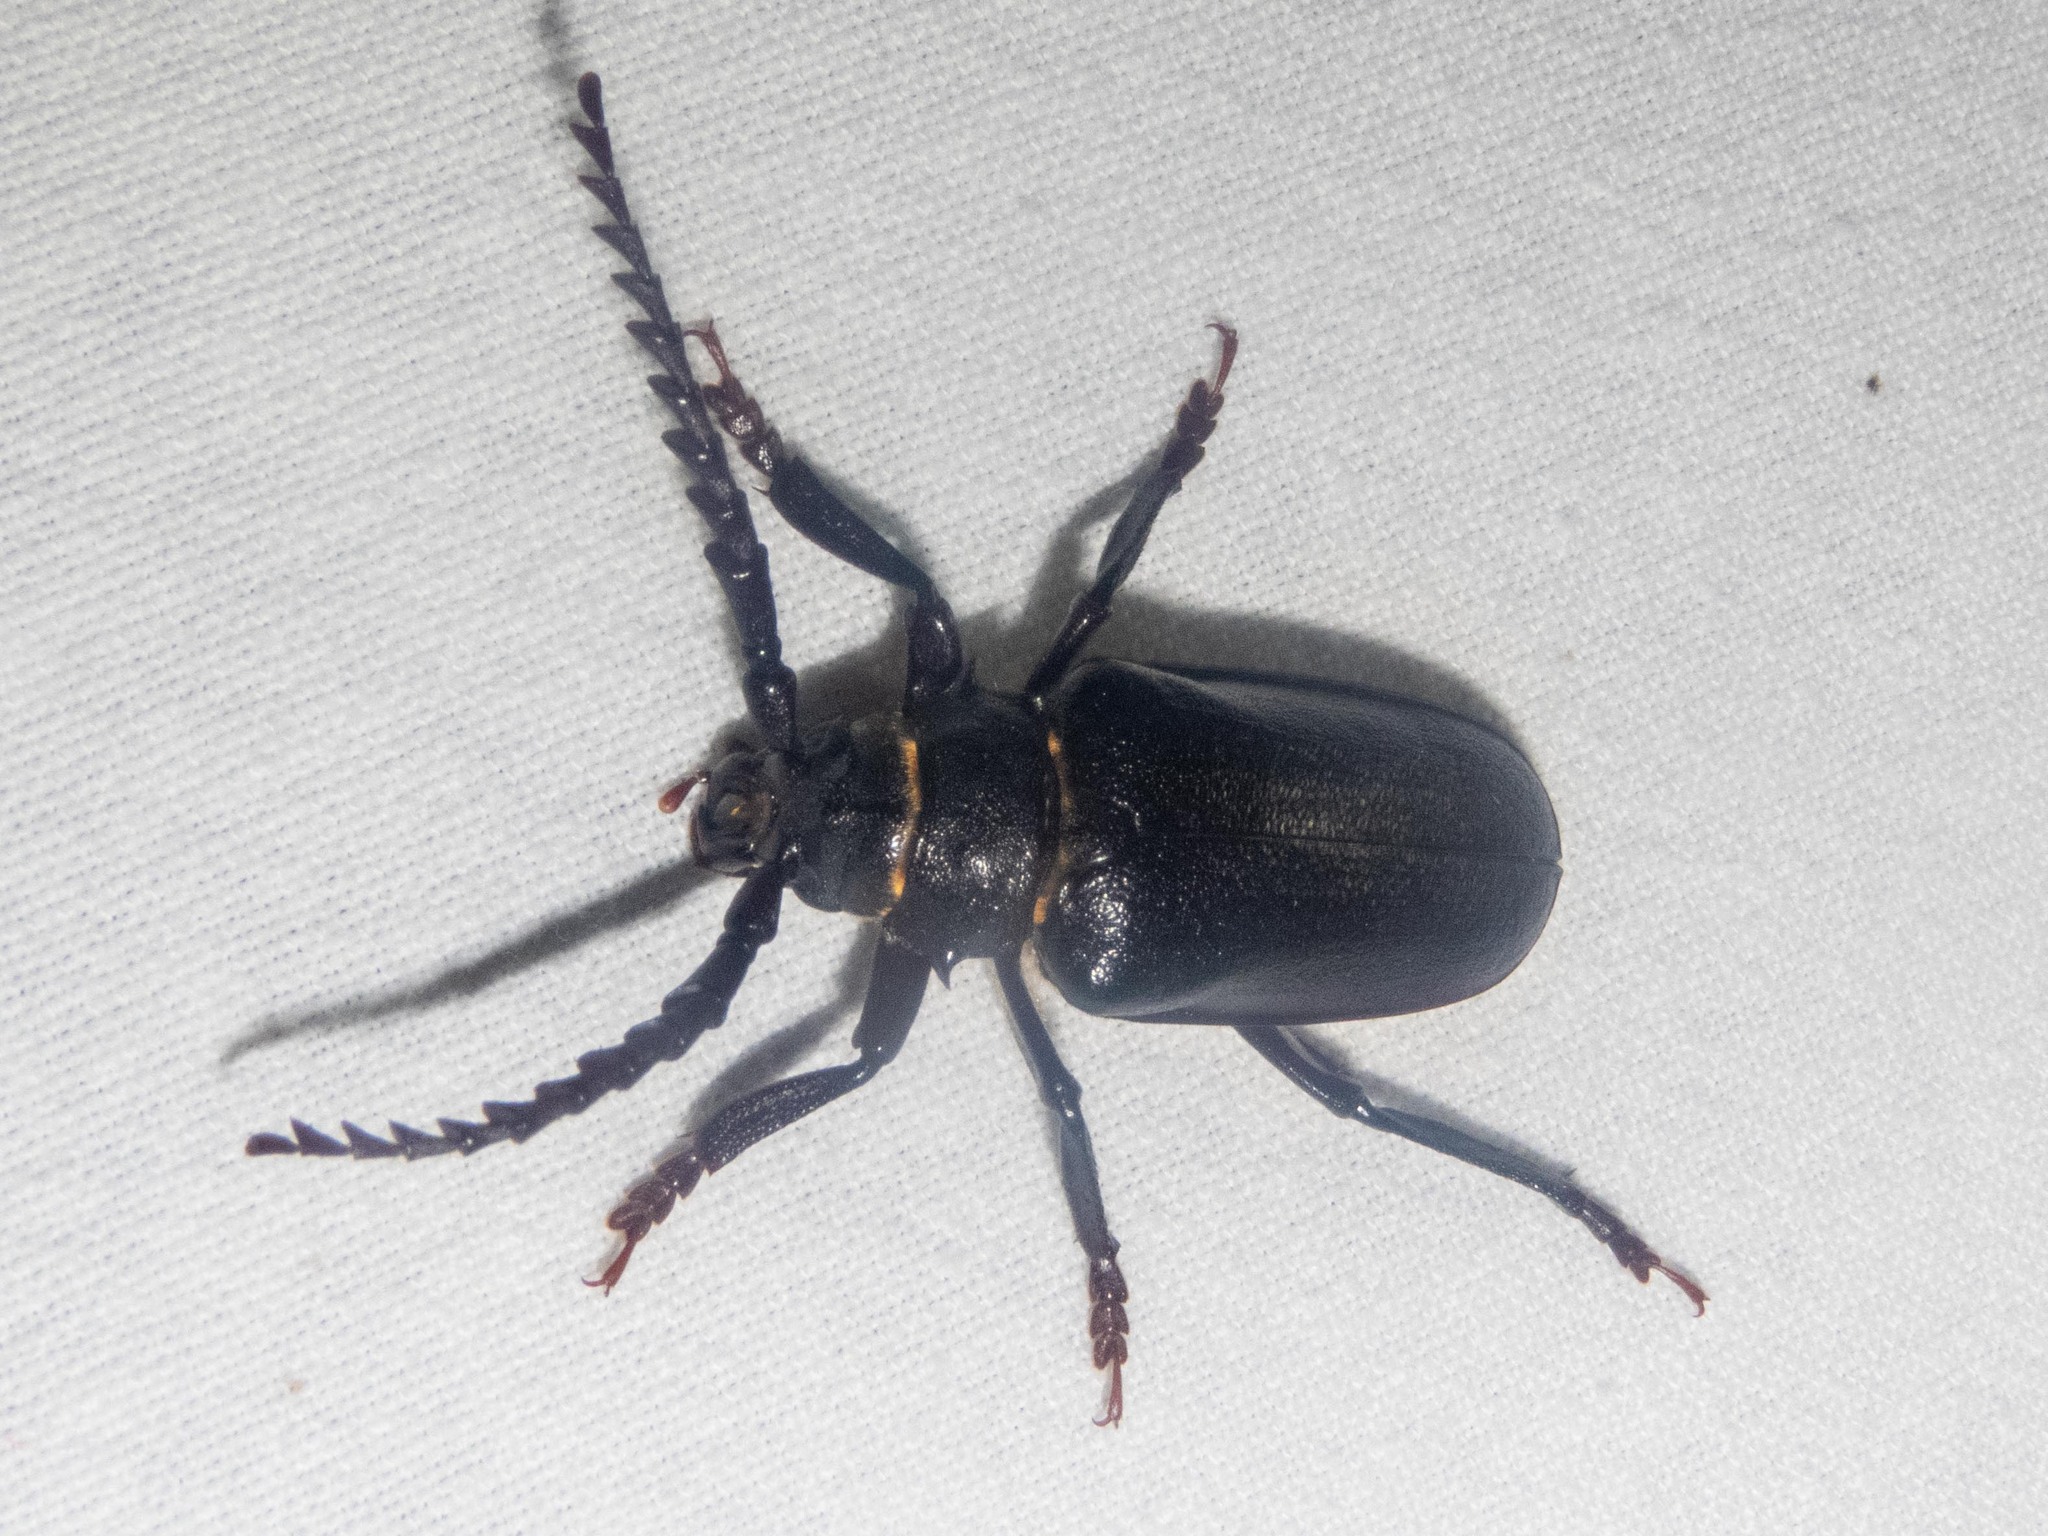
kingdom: Animalia
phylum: Arthropoda
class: Insecta
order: Coleoptera
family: Cerambycidae
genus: Prionus
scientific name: Prionus coriarius
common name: Tanner beetle
